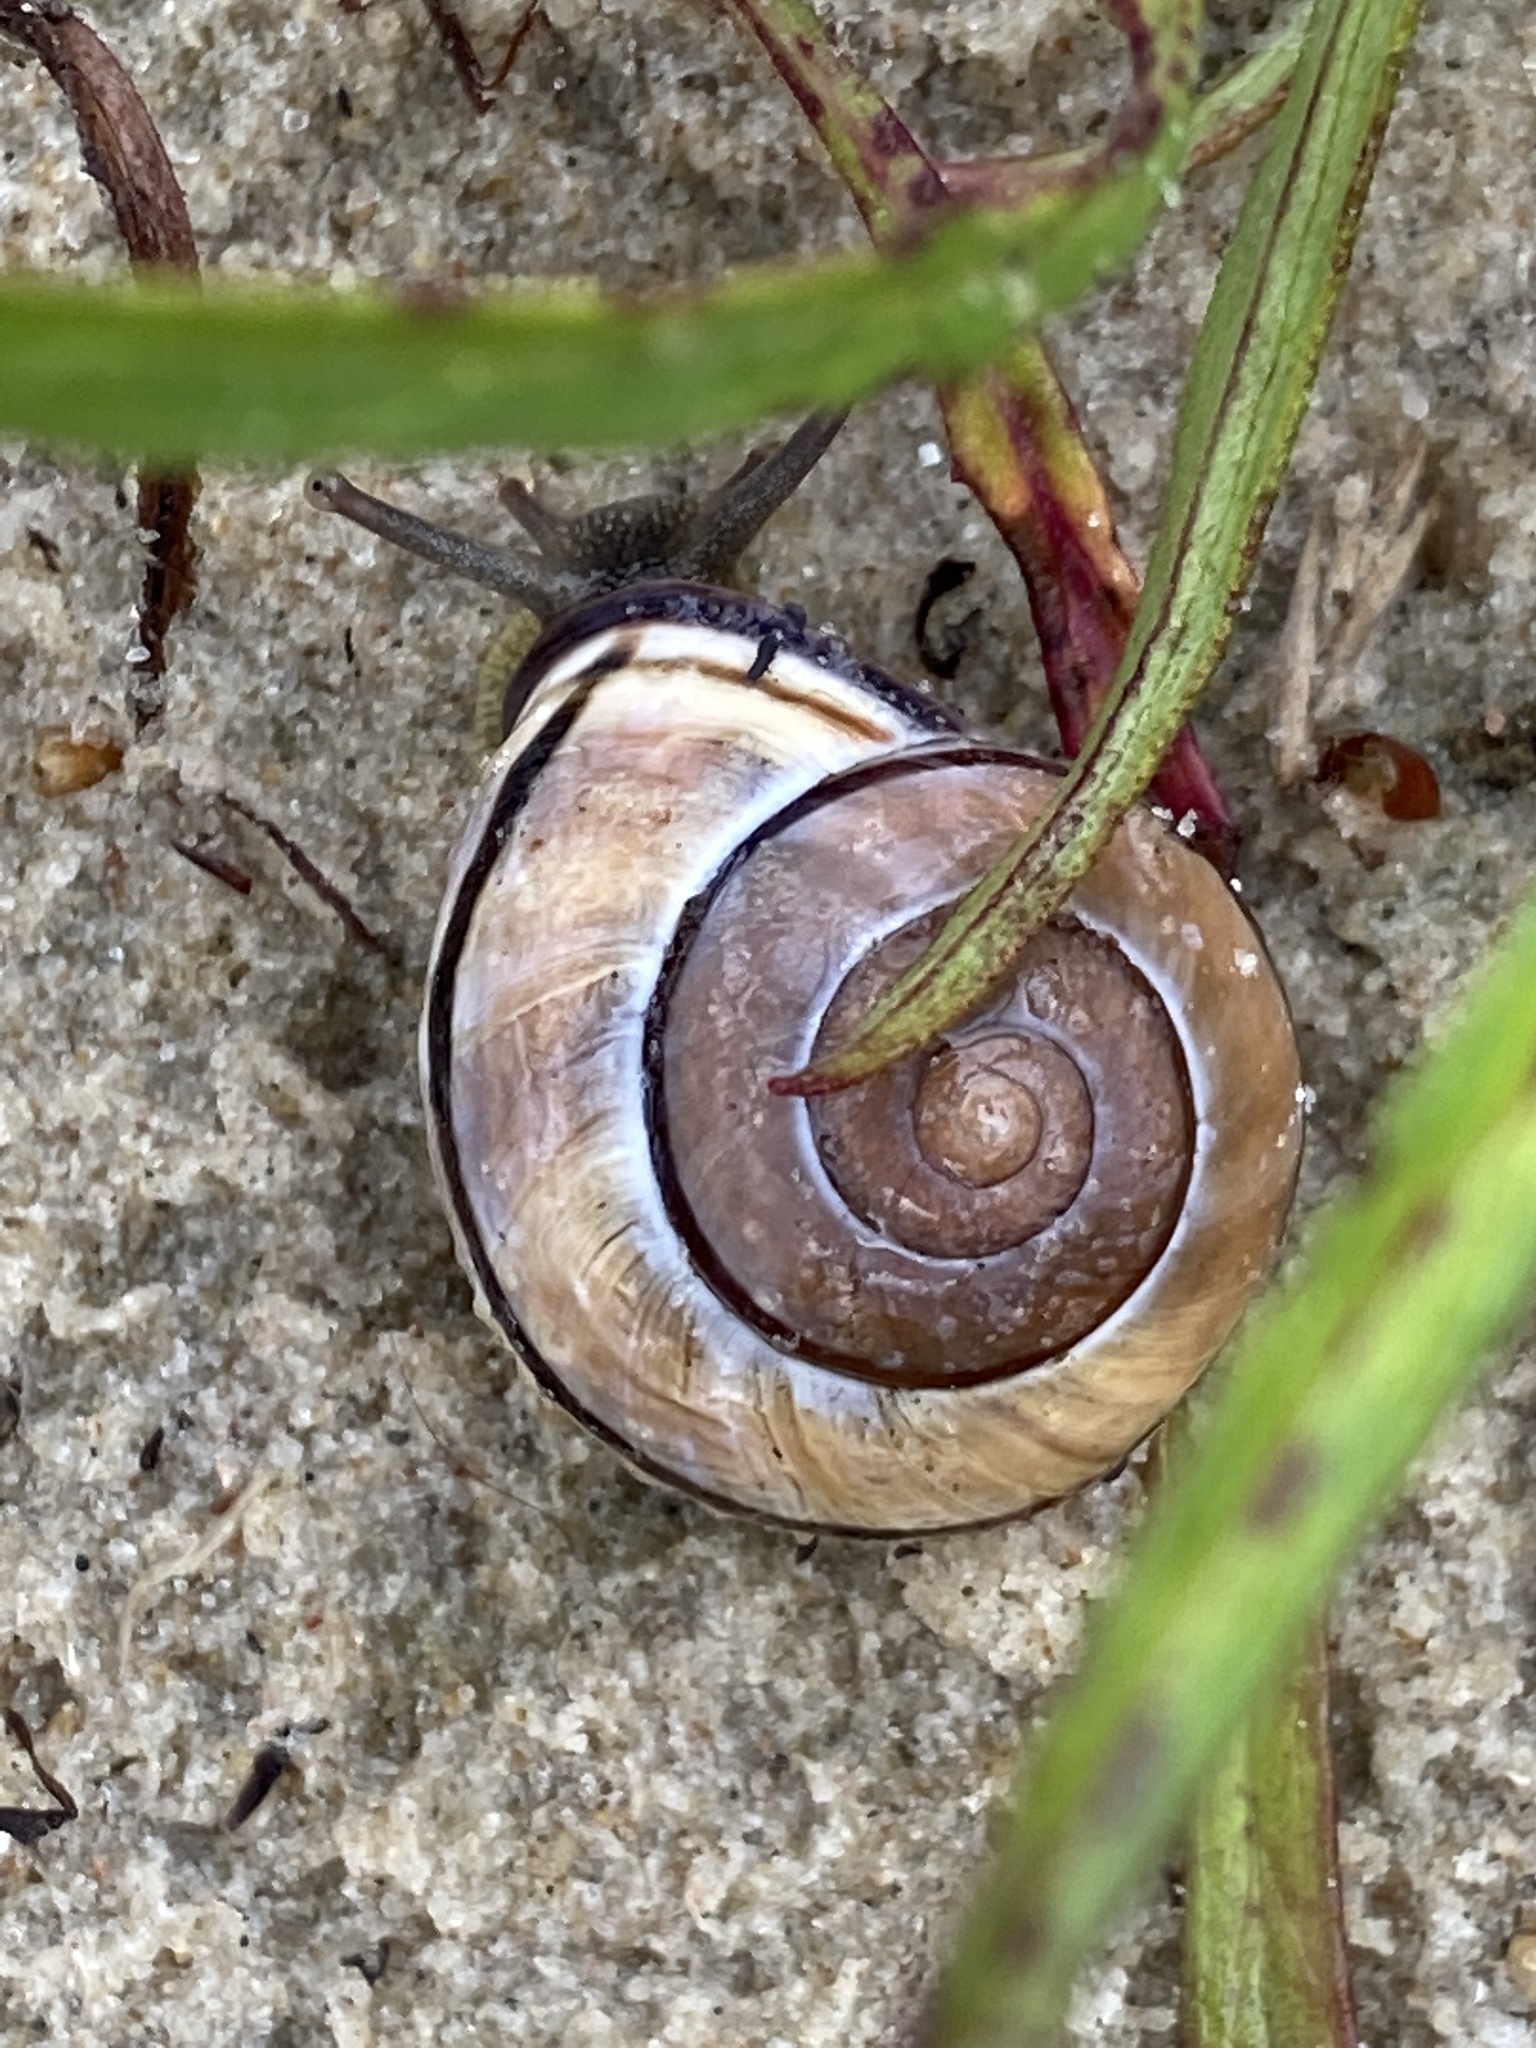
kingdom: Animalia
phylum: Mollusca
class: Gastropoda
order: Stylommatophora
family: Helicidae
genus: Cepaea
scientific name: Cepaea nemoralis
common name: Grovesnail
